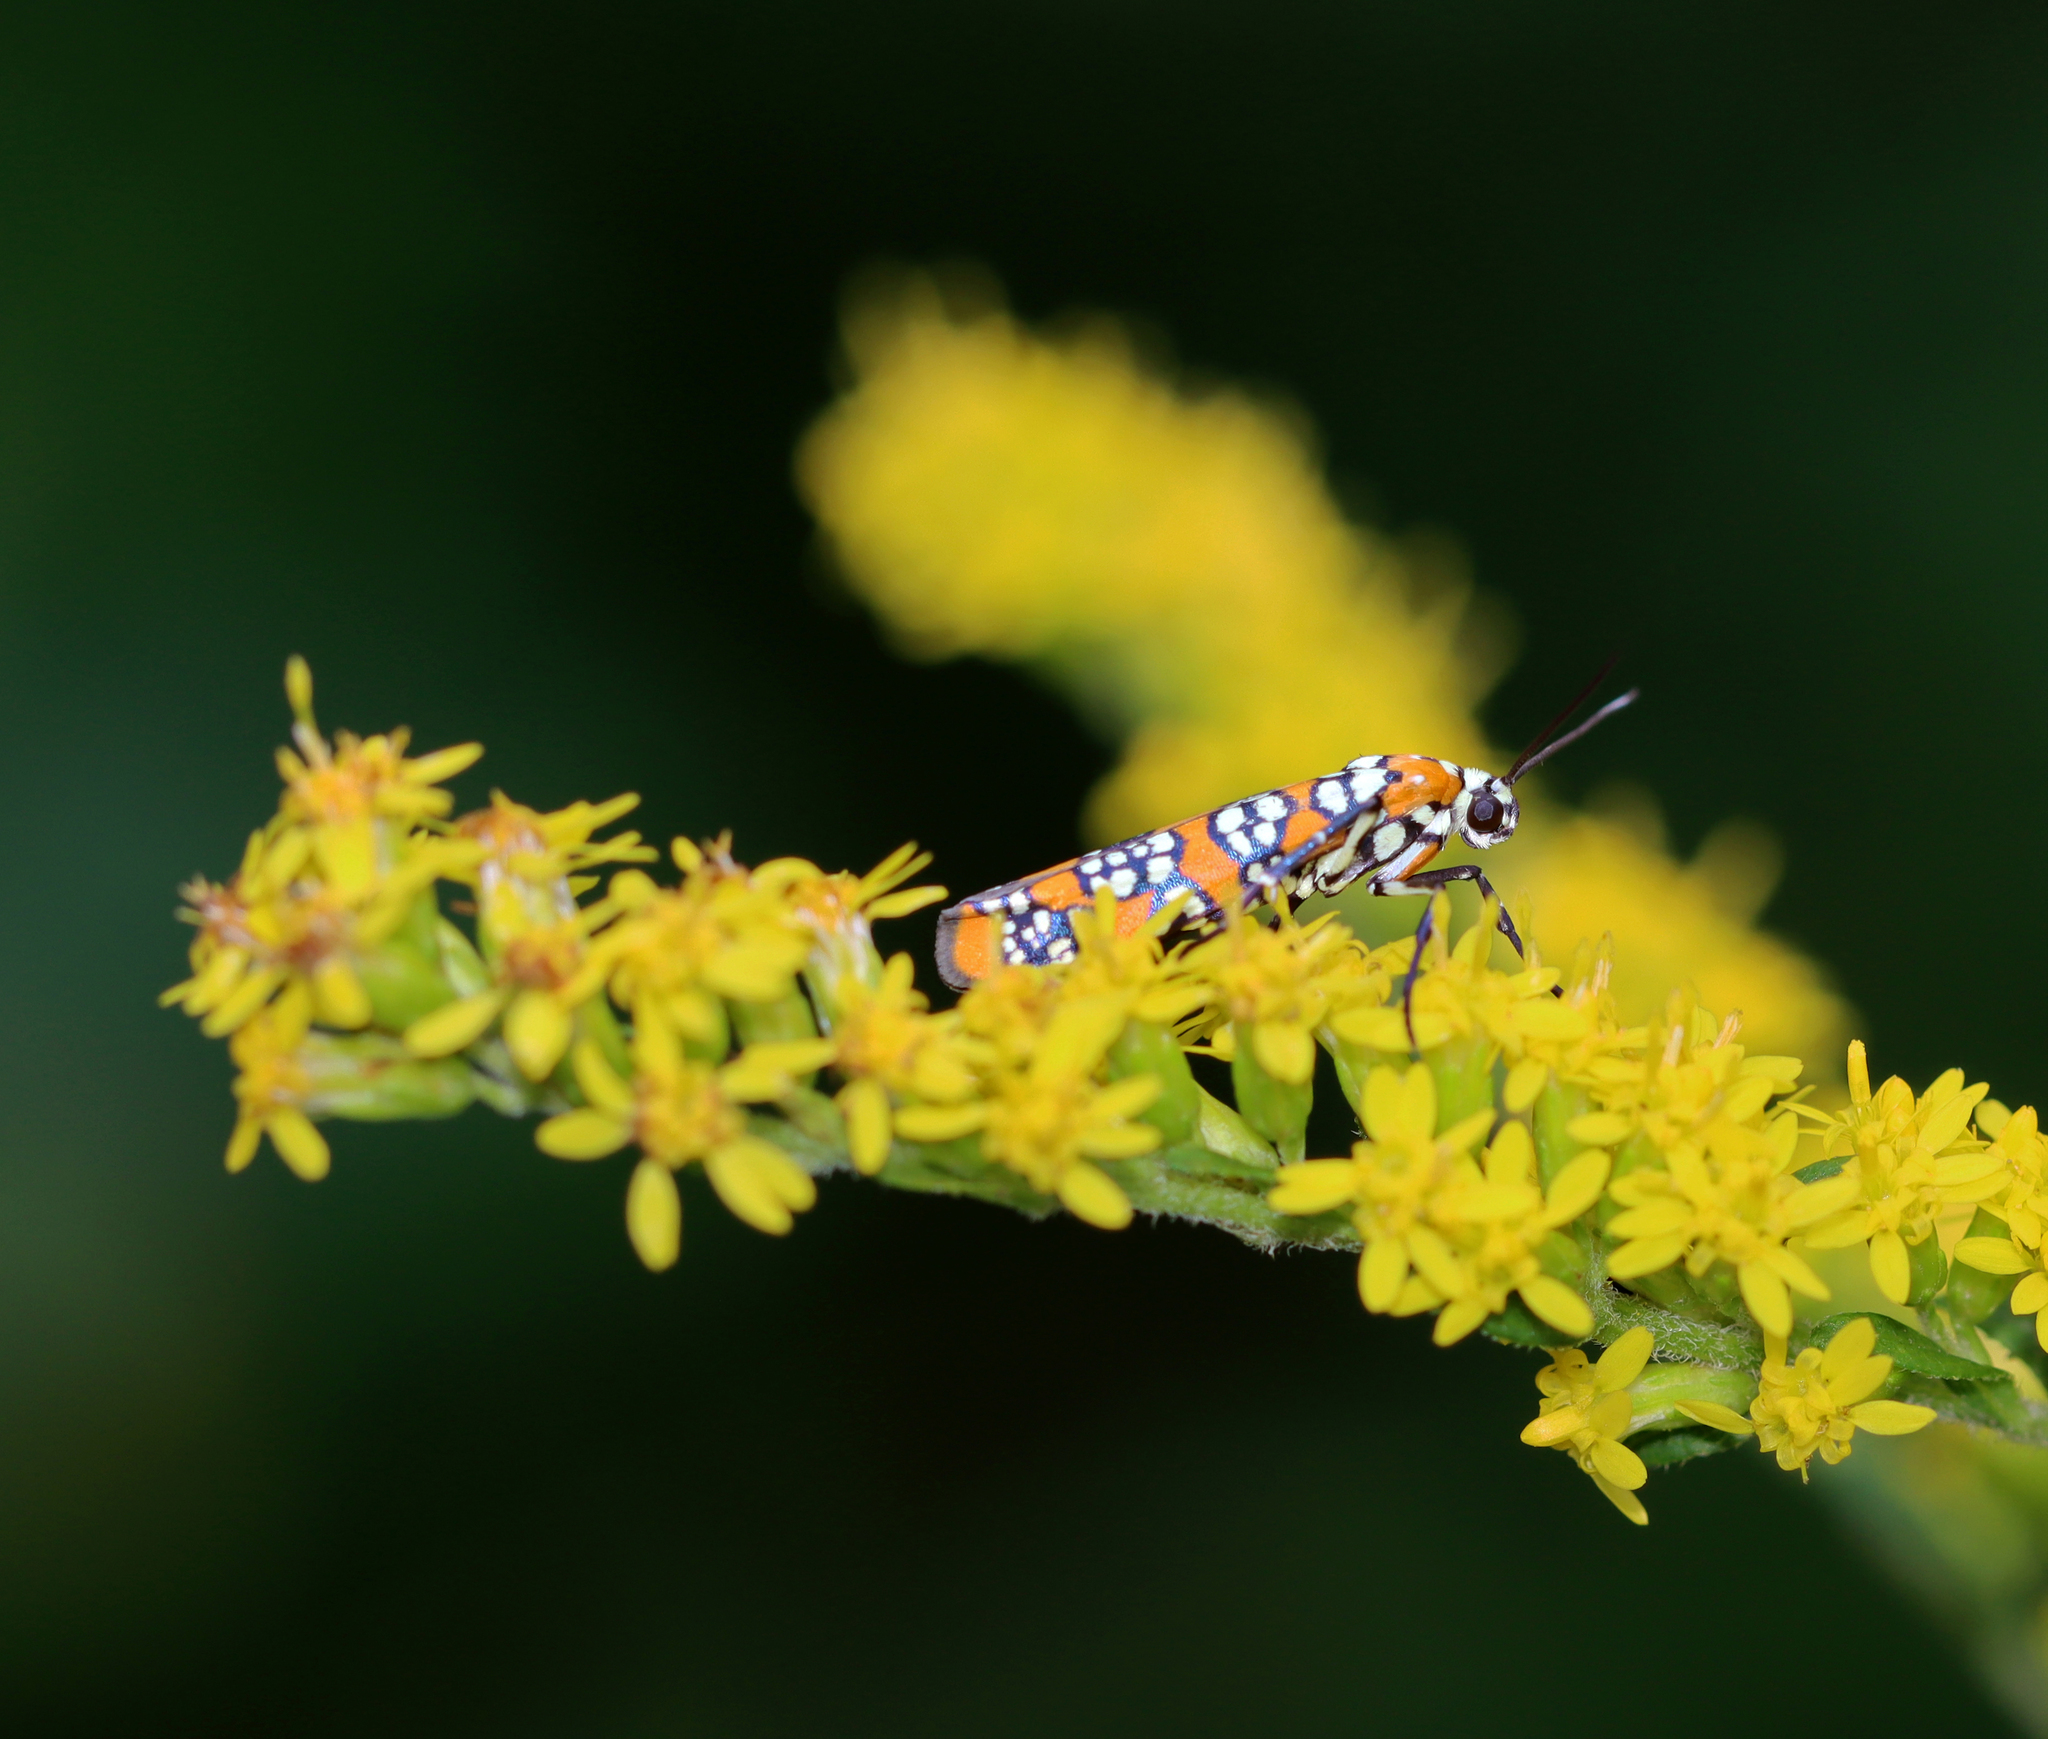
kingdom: Animalia
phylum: Arthropoda
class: Insecta
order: Lepidoptera
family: Attevidae
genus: Atteva
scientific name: Atteva punctella
